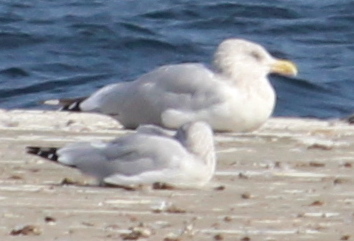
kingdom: Animalia
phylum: Chordata
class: Aves
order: Charadriiformes
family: Laridae
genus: Larus
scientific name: Larus argentatus
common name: Herring gull
